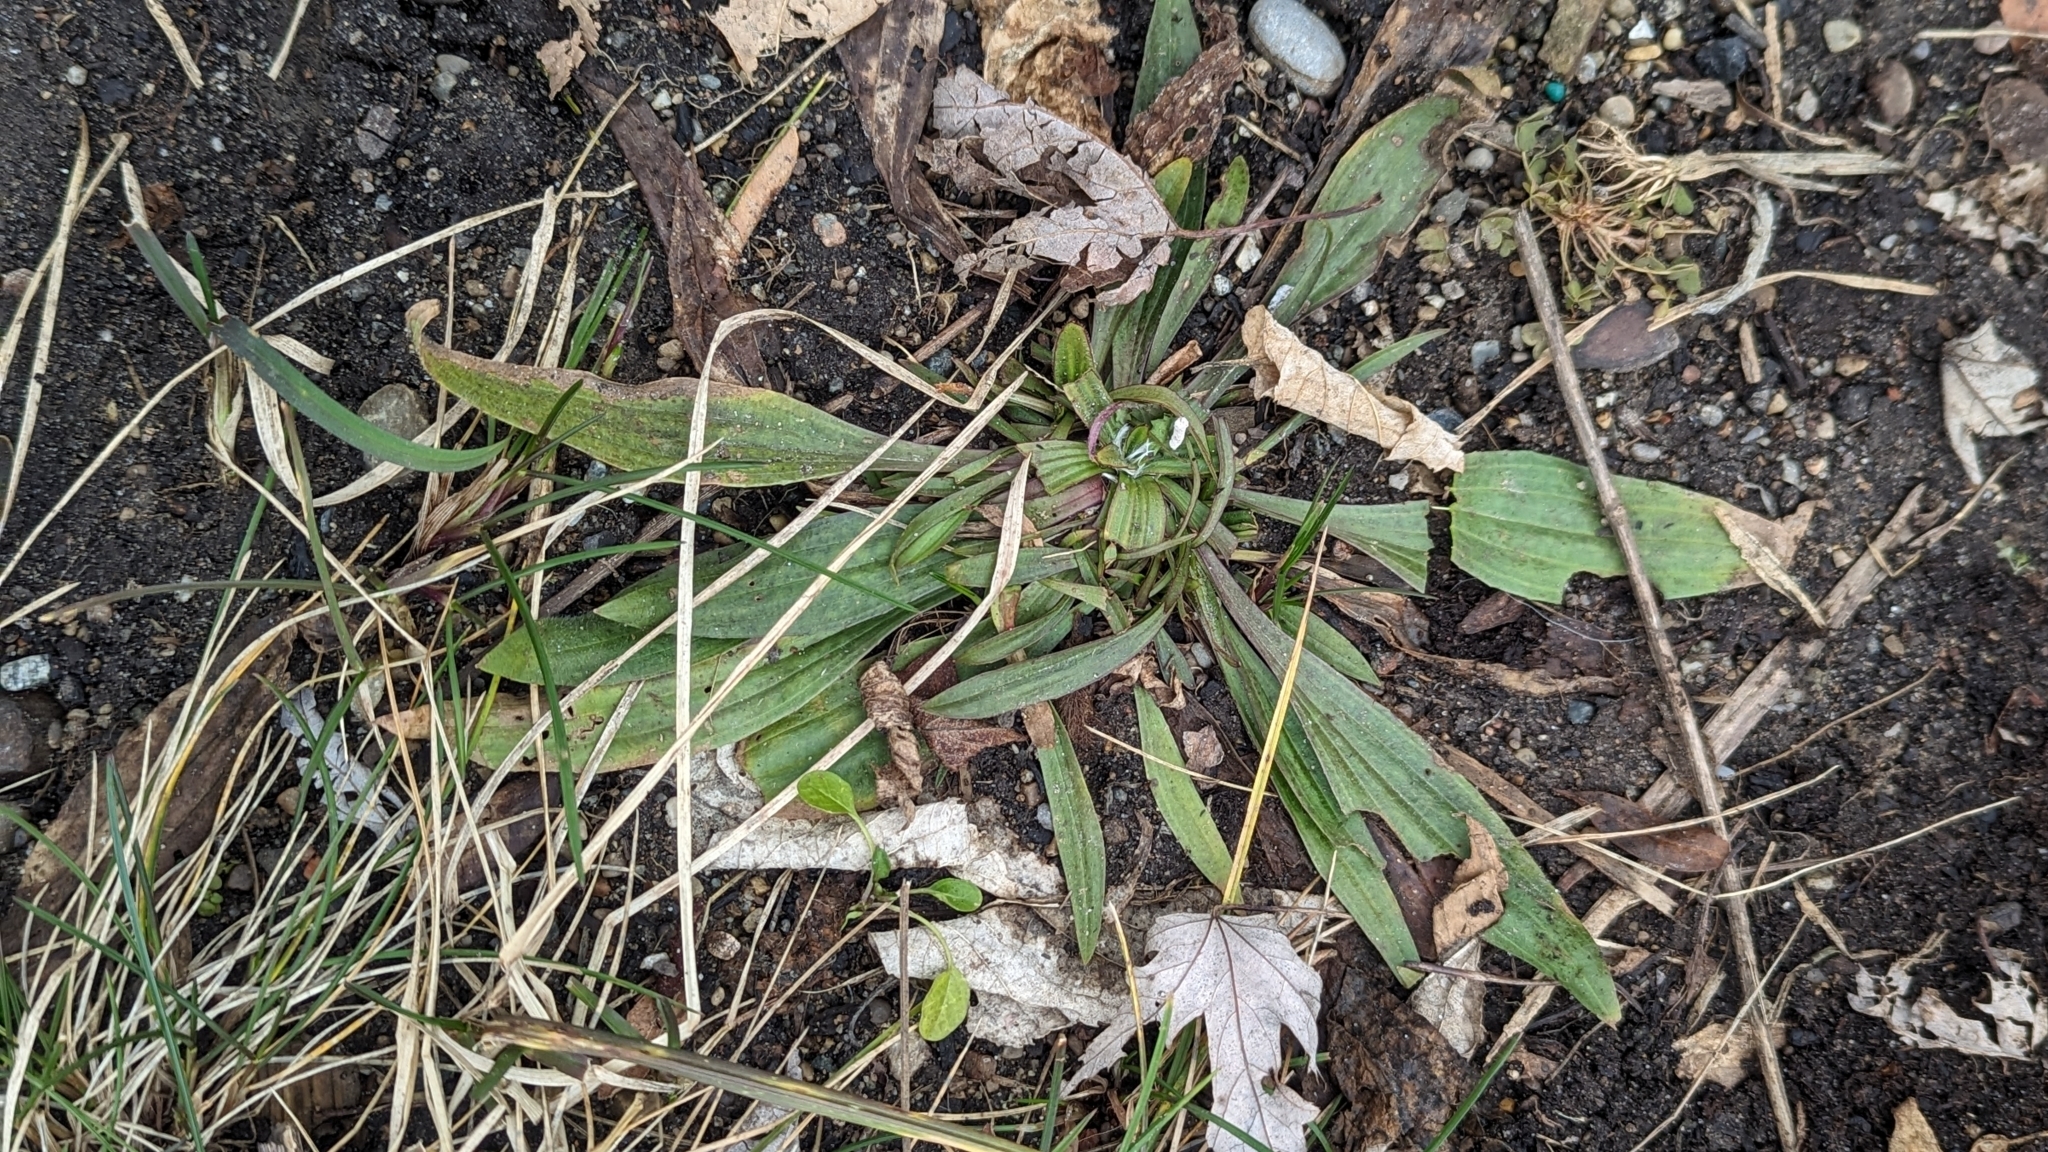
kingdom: Plantae
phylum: Tracheophyta
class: Magnoliopsida
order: Lamiales
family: Plantaginaceae
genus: Plantago
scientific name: Plantago lanceolata
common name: Ribwort plantain
